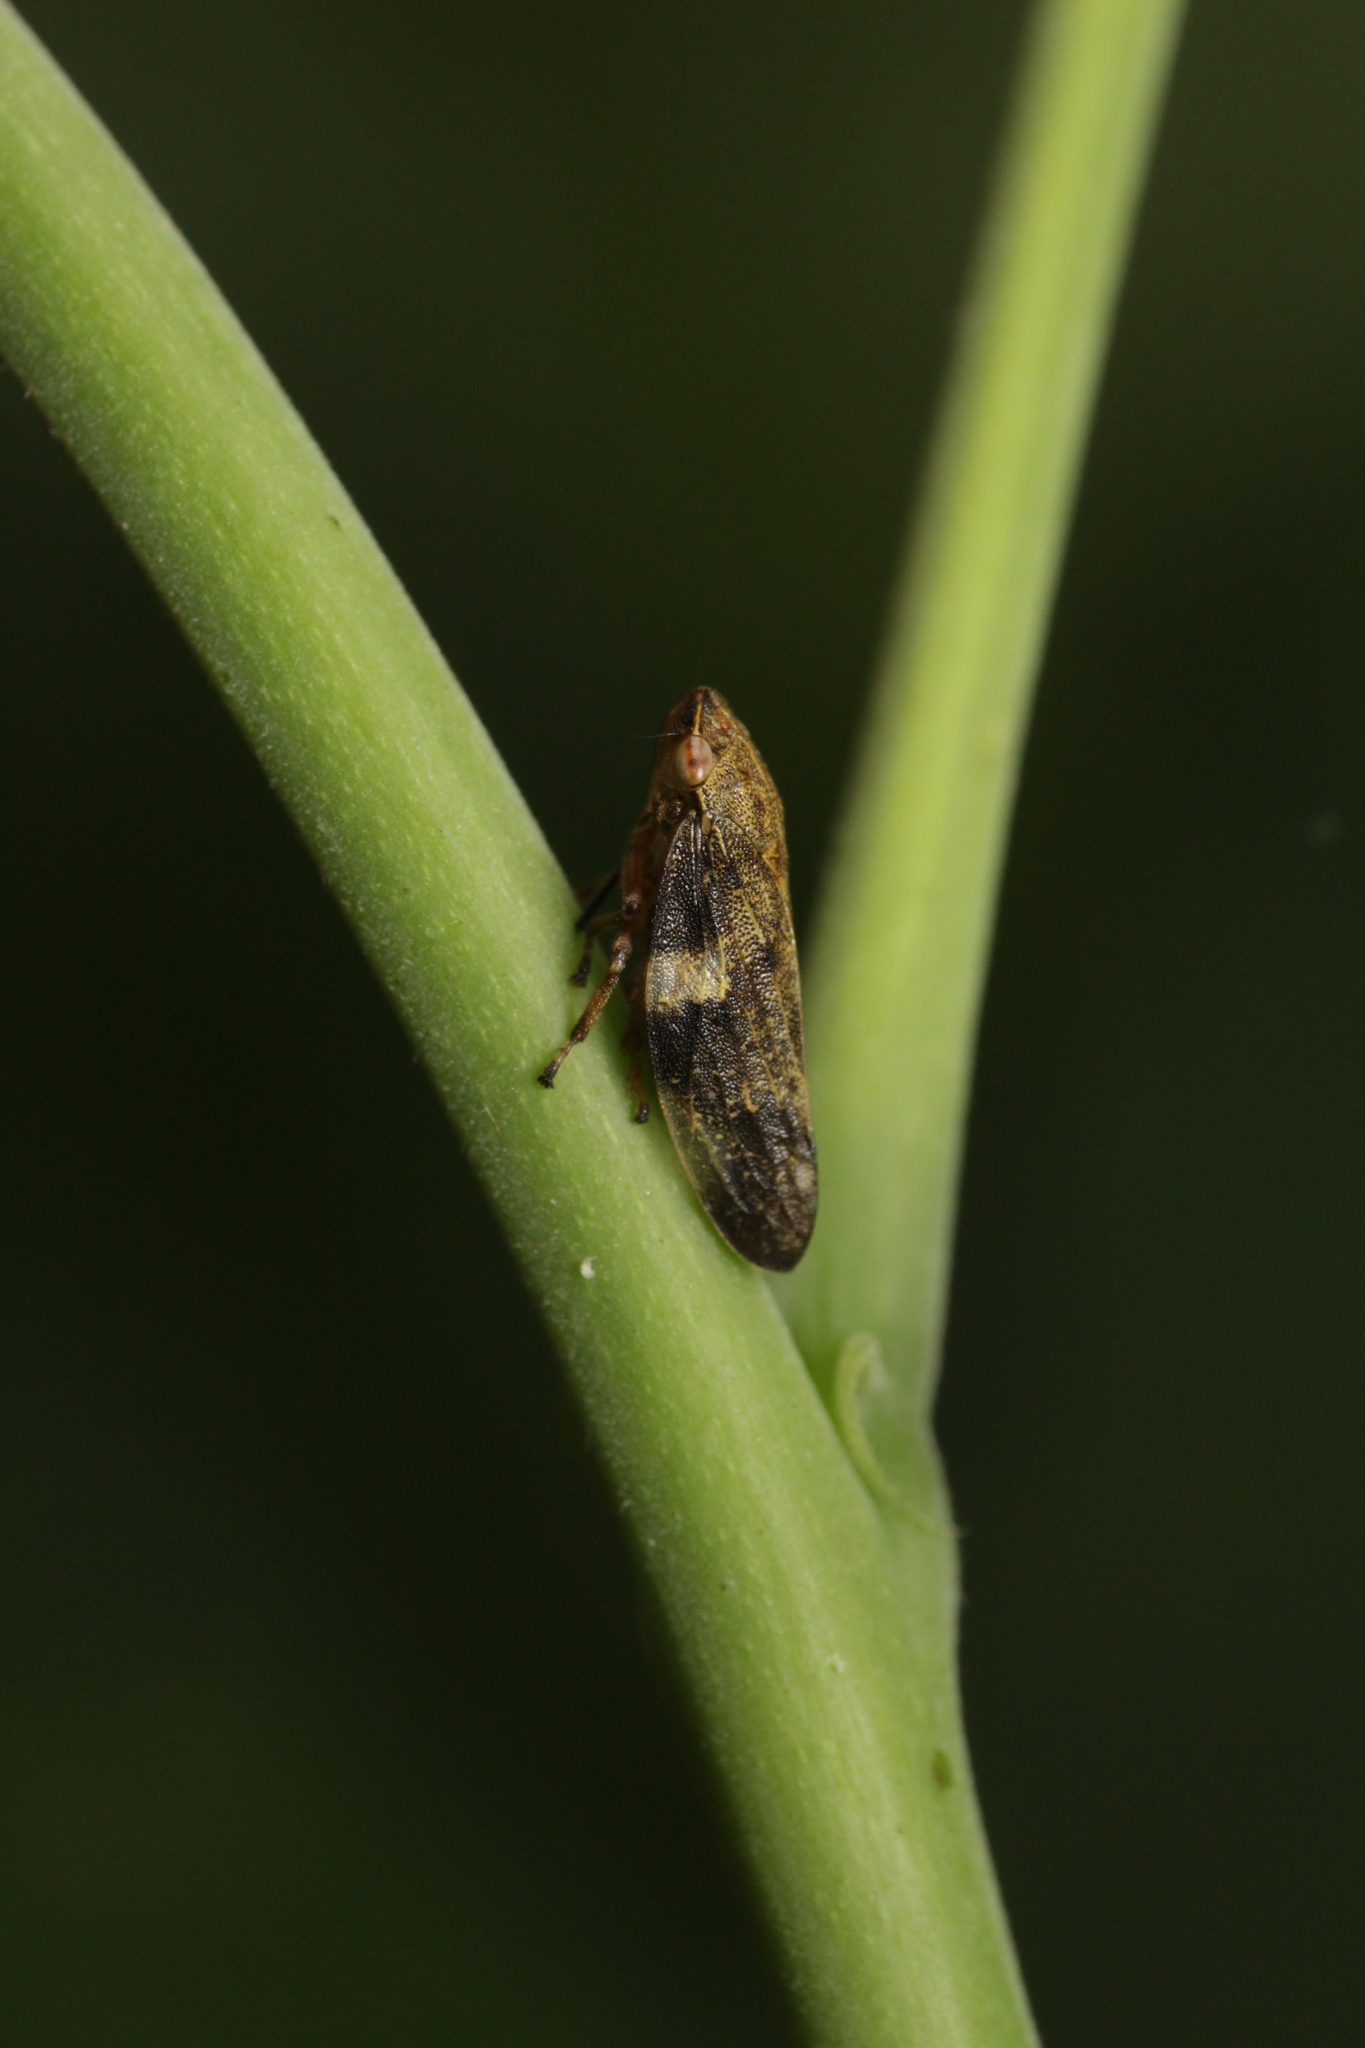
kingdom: Animalia
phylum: Arthropoda
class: Insecta
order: Hemiptera
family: Aphrophoridae
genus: Aphrophora
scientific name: Aphrophora alni
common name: European alder spittlebug
